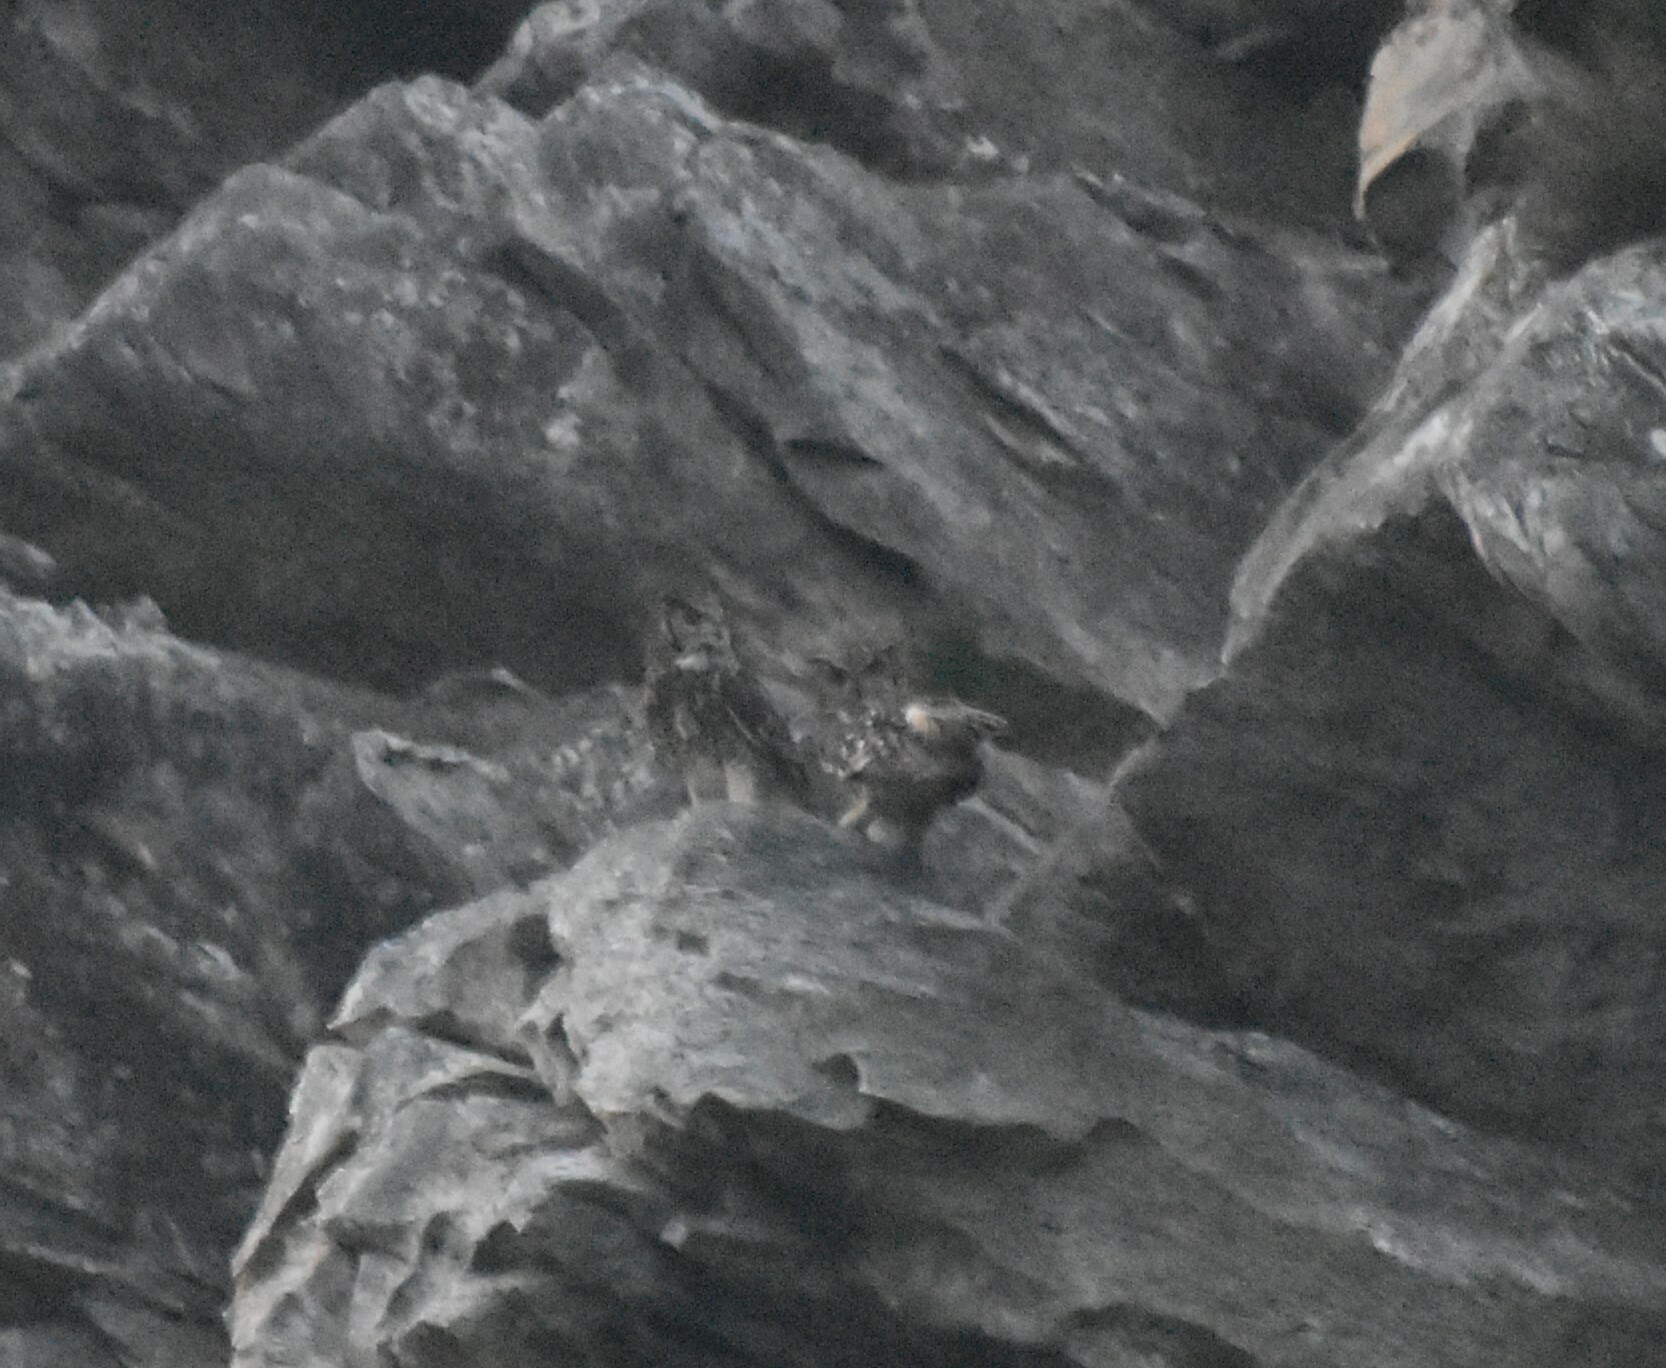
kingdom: Animalia
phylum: Chordata
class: Aves
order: Strigiformes
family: Strigidae
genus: Bubo
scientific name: Bubo capensis
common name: Cape eagle-owl
